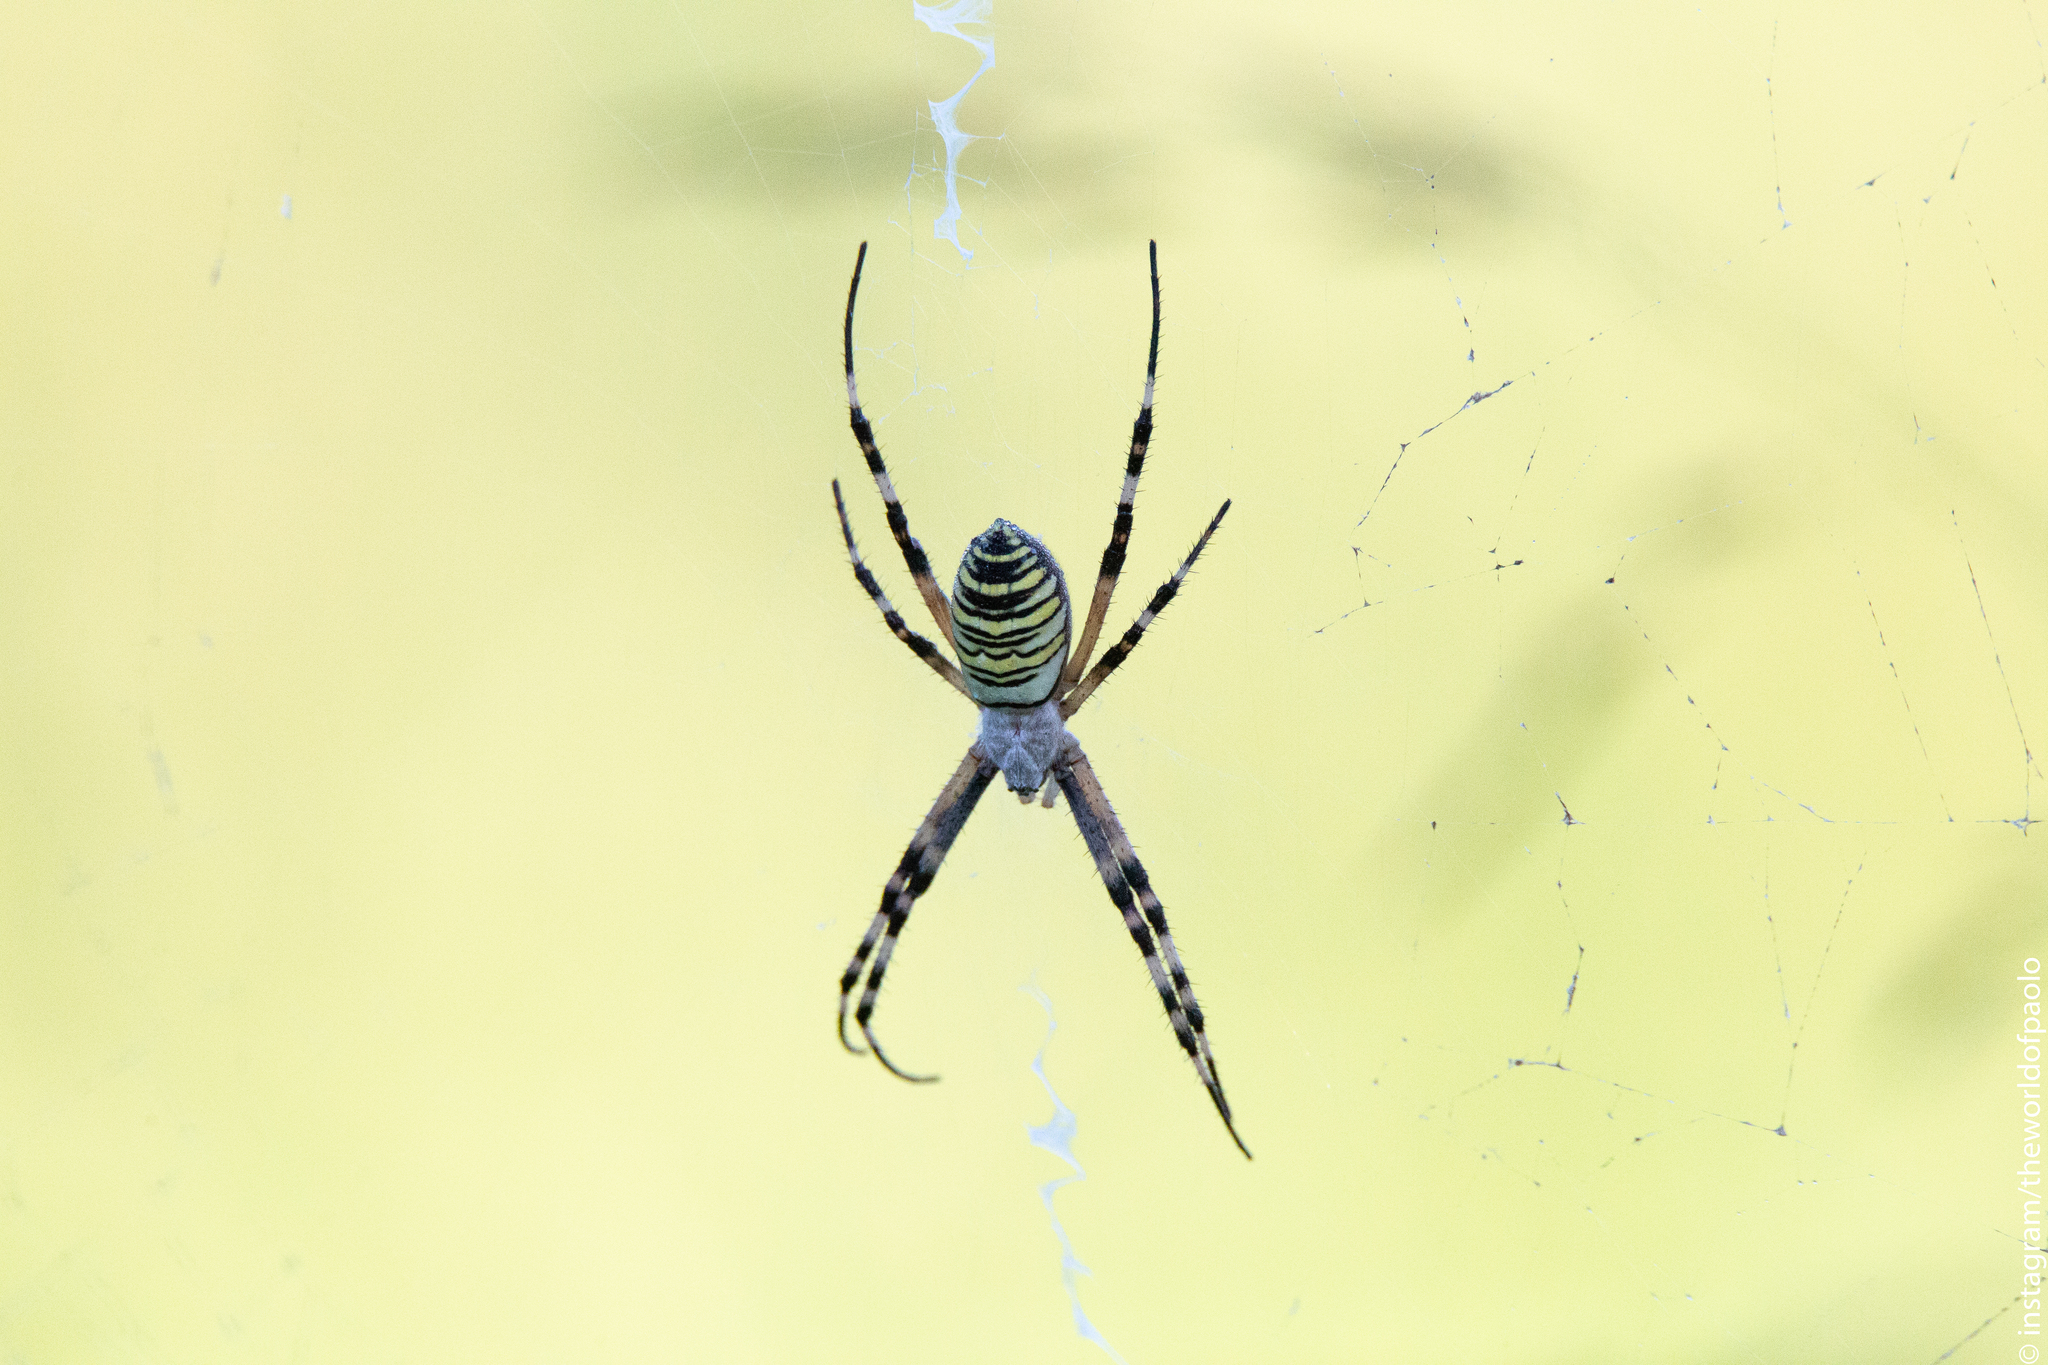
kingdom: Animalia
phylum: Arthropoda
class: Arachnida
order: Araneae
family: Araneidae
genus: Argiope
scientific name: Argiope bruennichi
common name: Wasp spider
